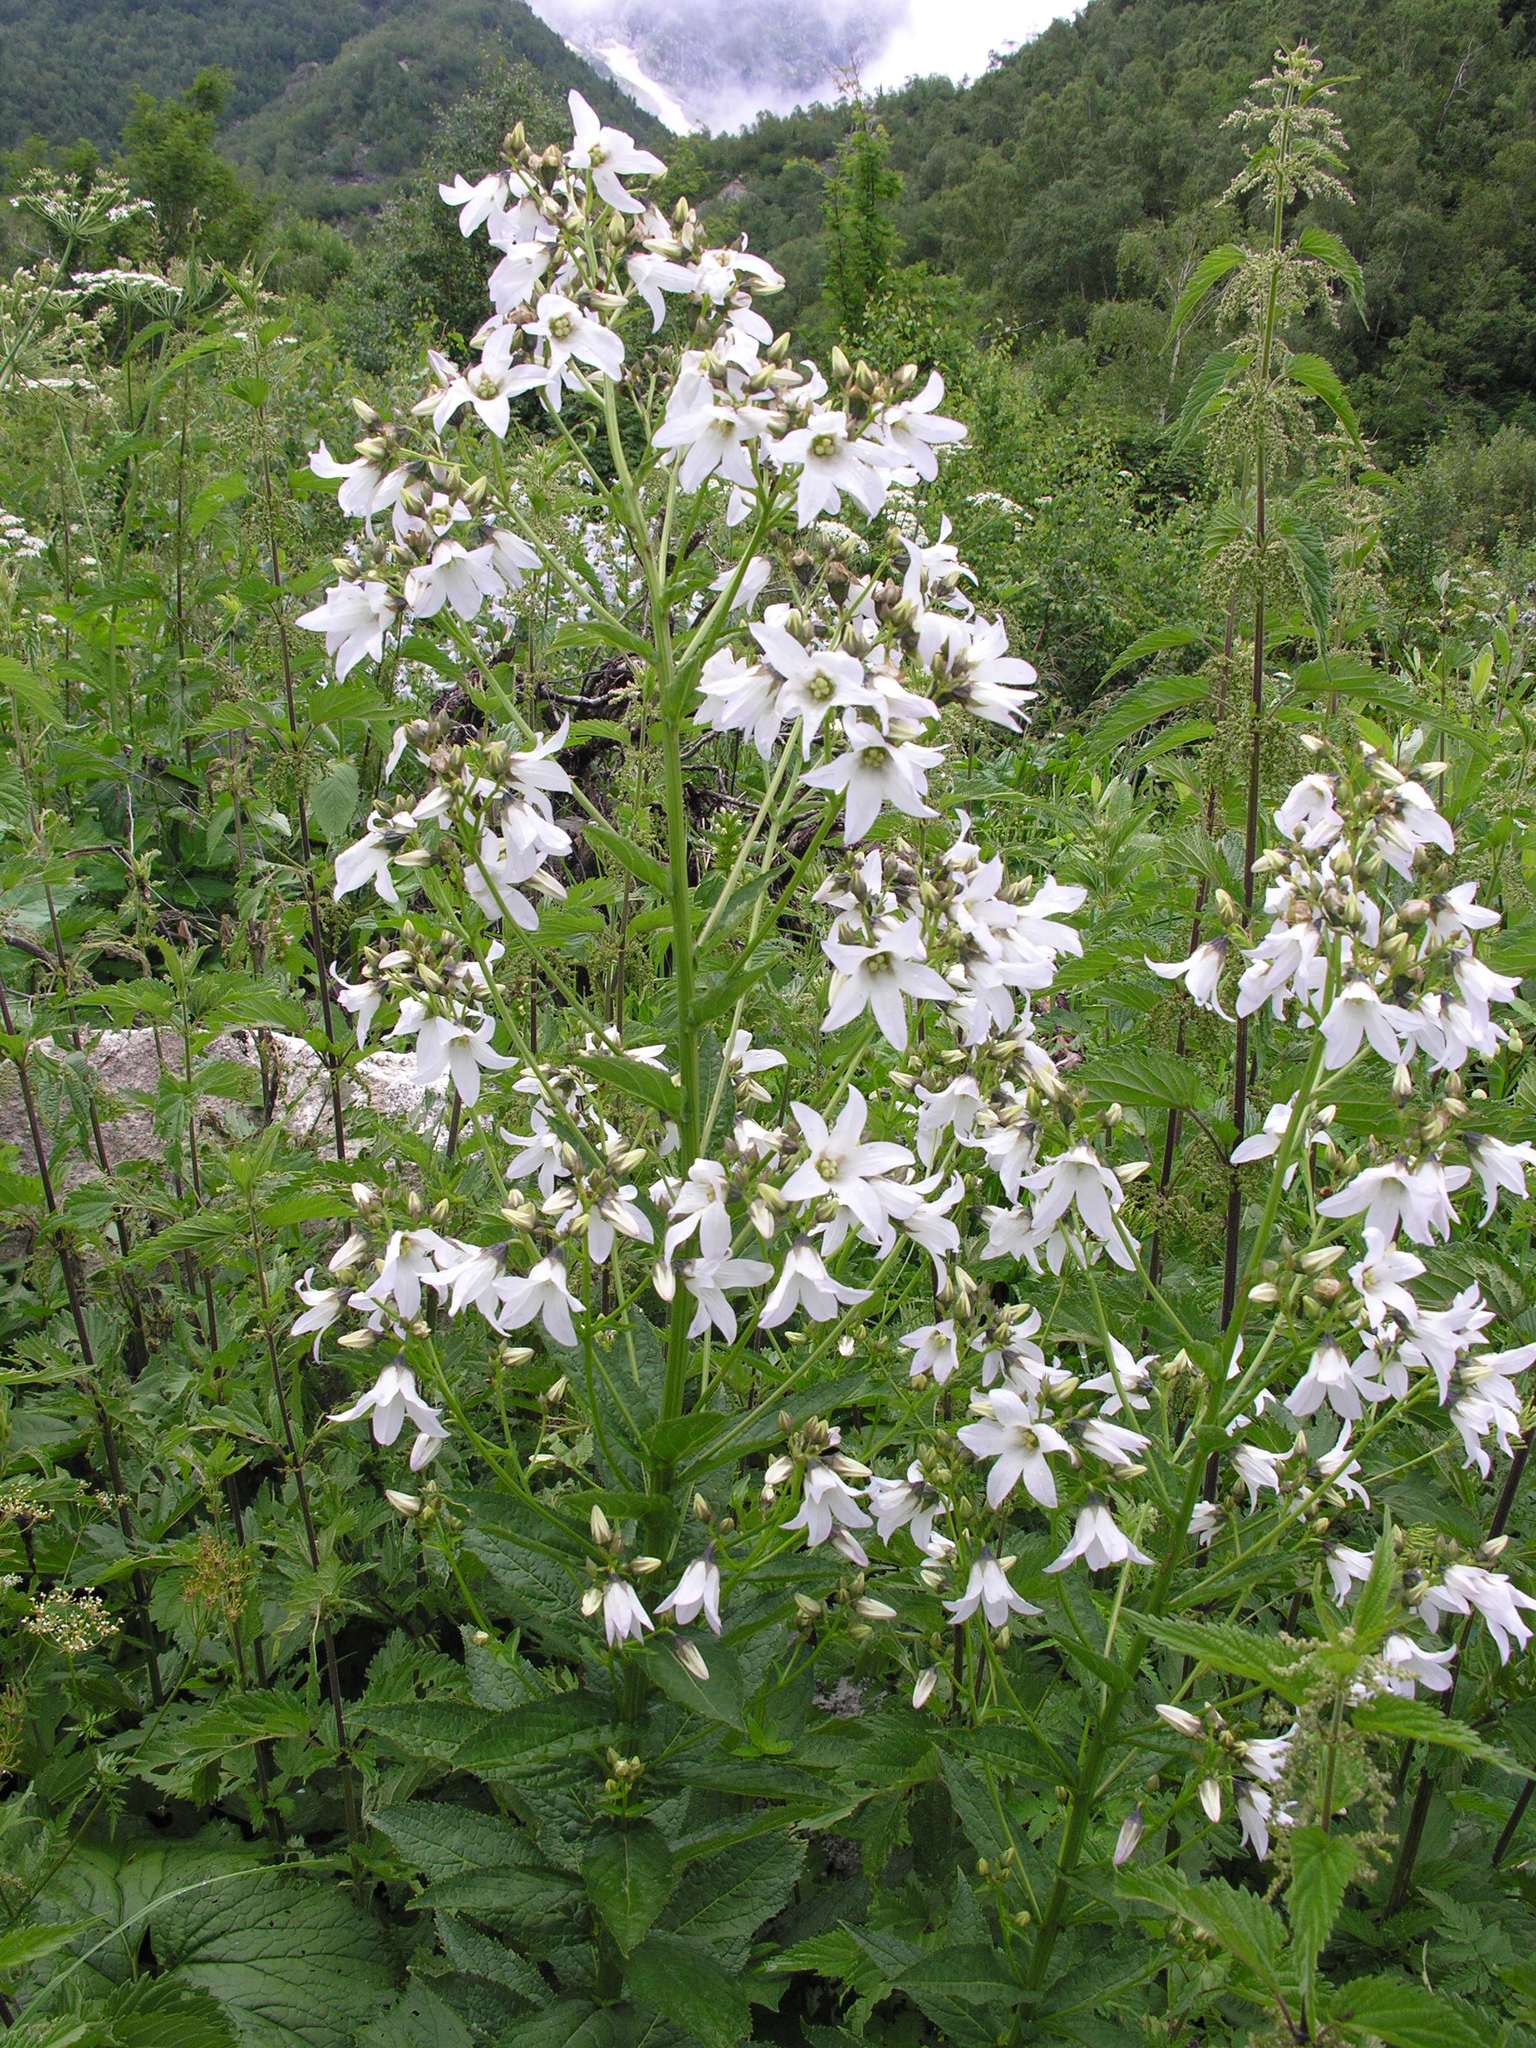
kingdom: Plantae
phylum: Tracheophyta
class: Magnoliopsida
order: Asterales
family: Campanulaceae
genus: Campanula
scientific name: Campanula lactiflora
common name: Milky bellflower
